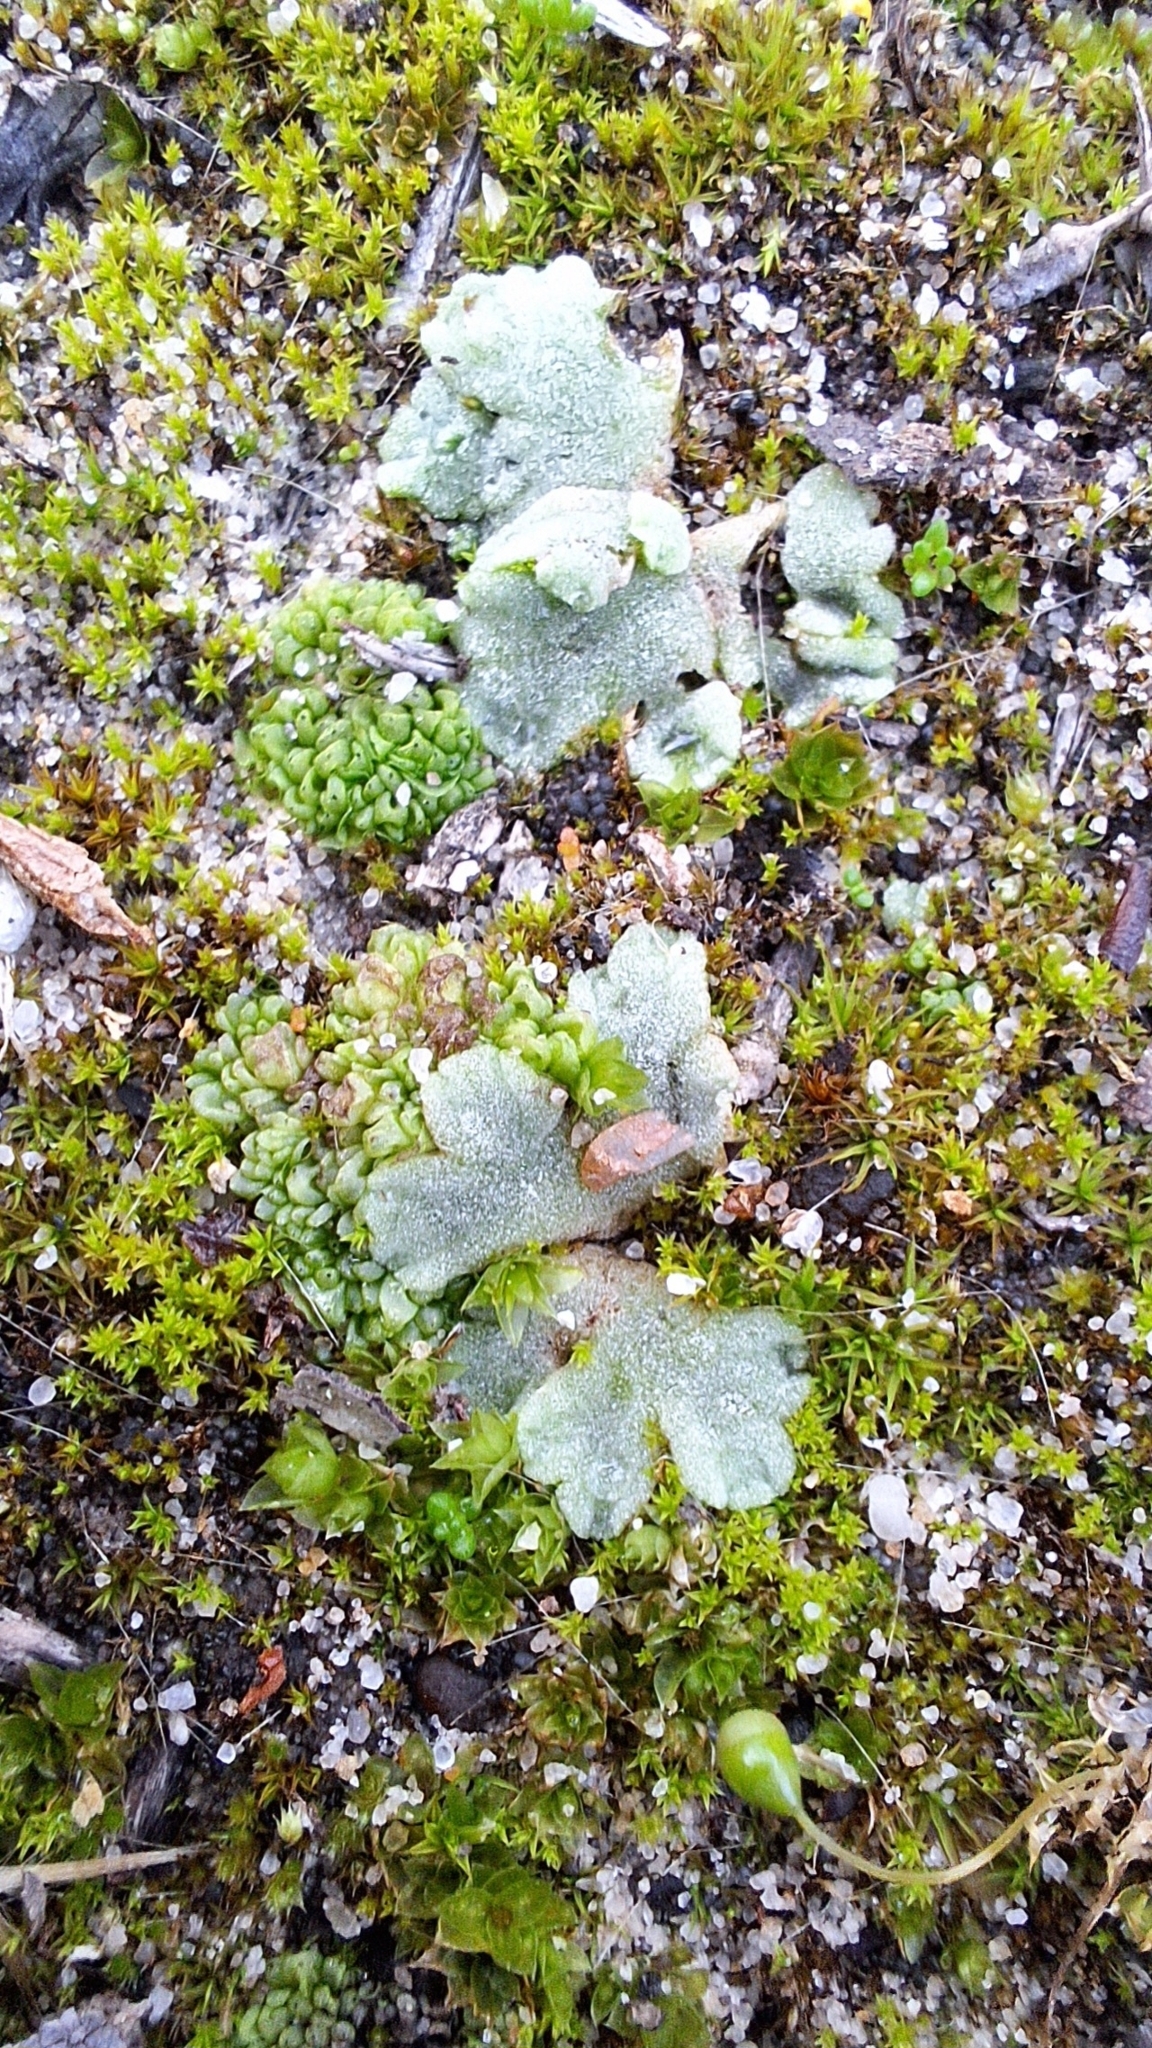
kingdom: Plantae
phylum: Marchantiophyta
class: Marchantiopsida
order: Marchantiales
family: Ricciaceae
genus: Riccia
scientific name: Riccia crystallina
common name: Blue crystalwort
